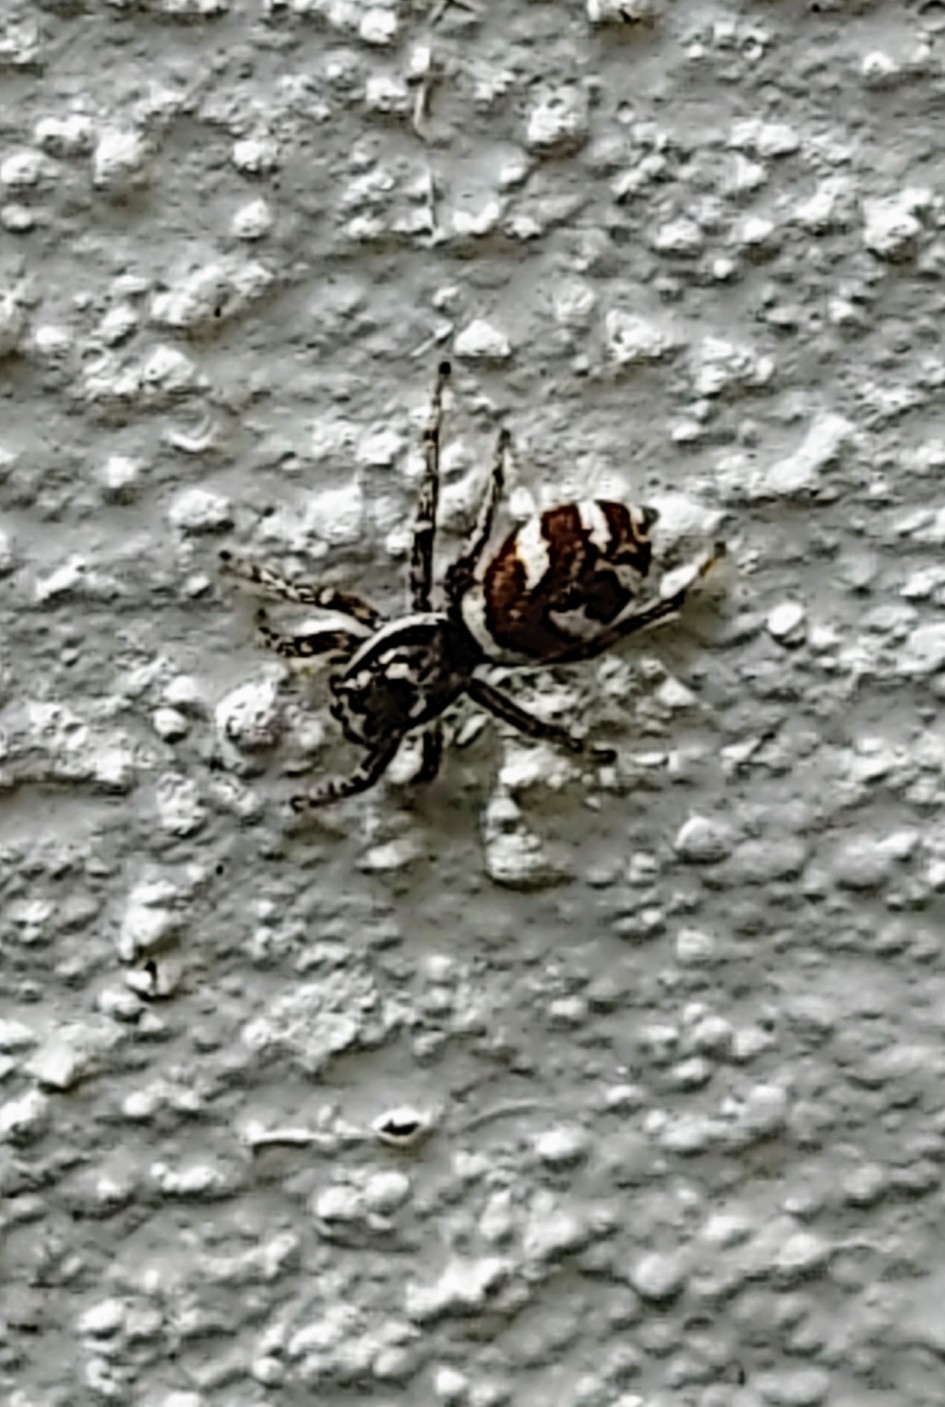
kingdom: Animalia
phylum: Arthropoda
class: Arachnida
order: Araneae
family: Salticidae
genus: Salticus
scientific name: Salticus scenicus
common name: Zebra jumper
